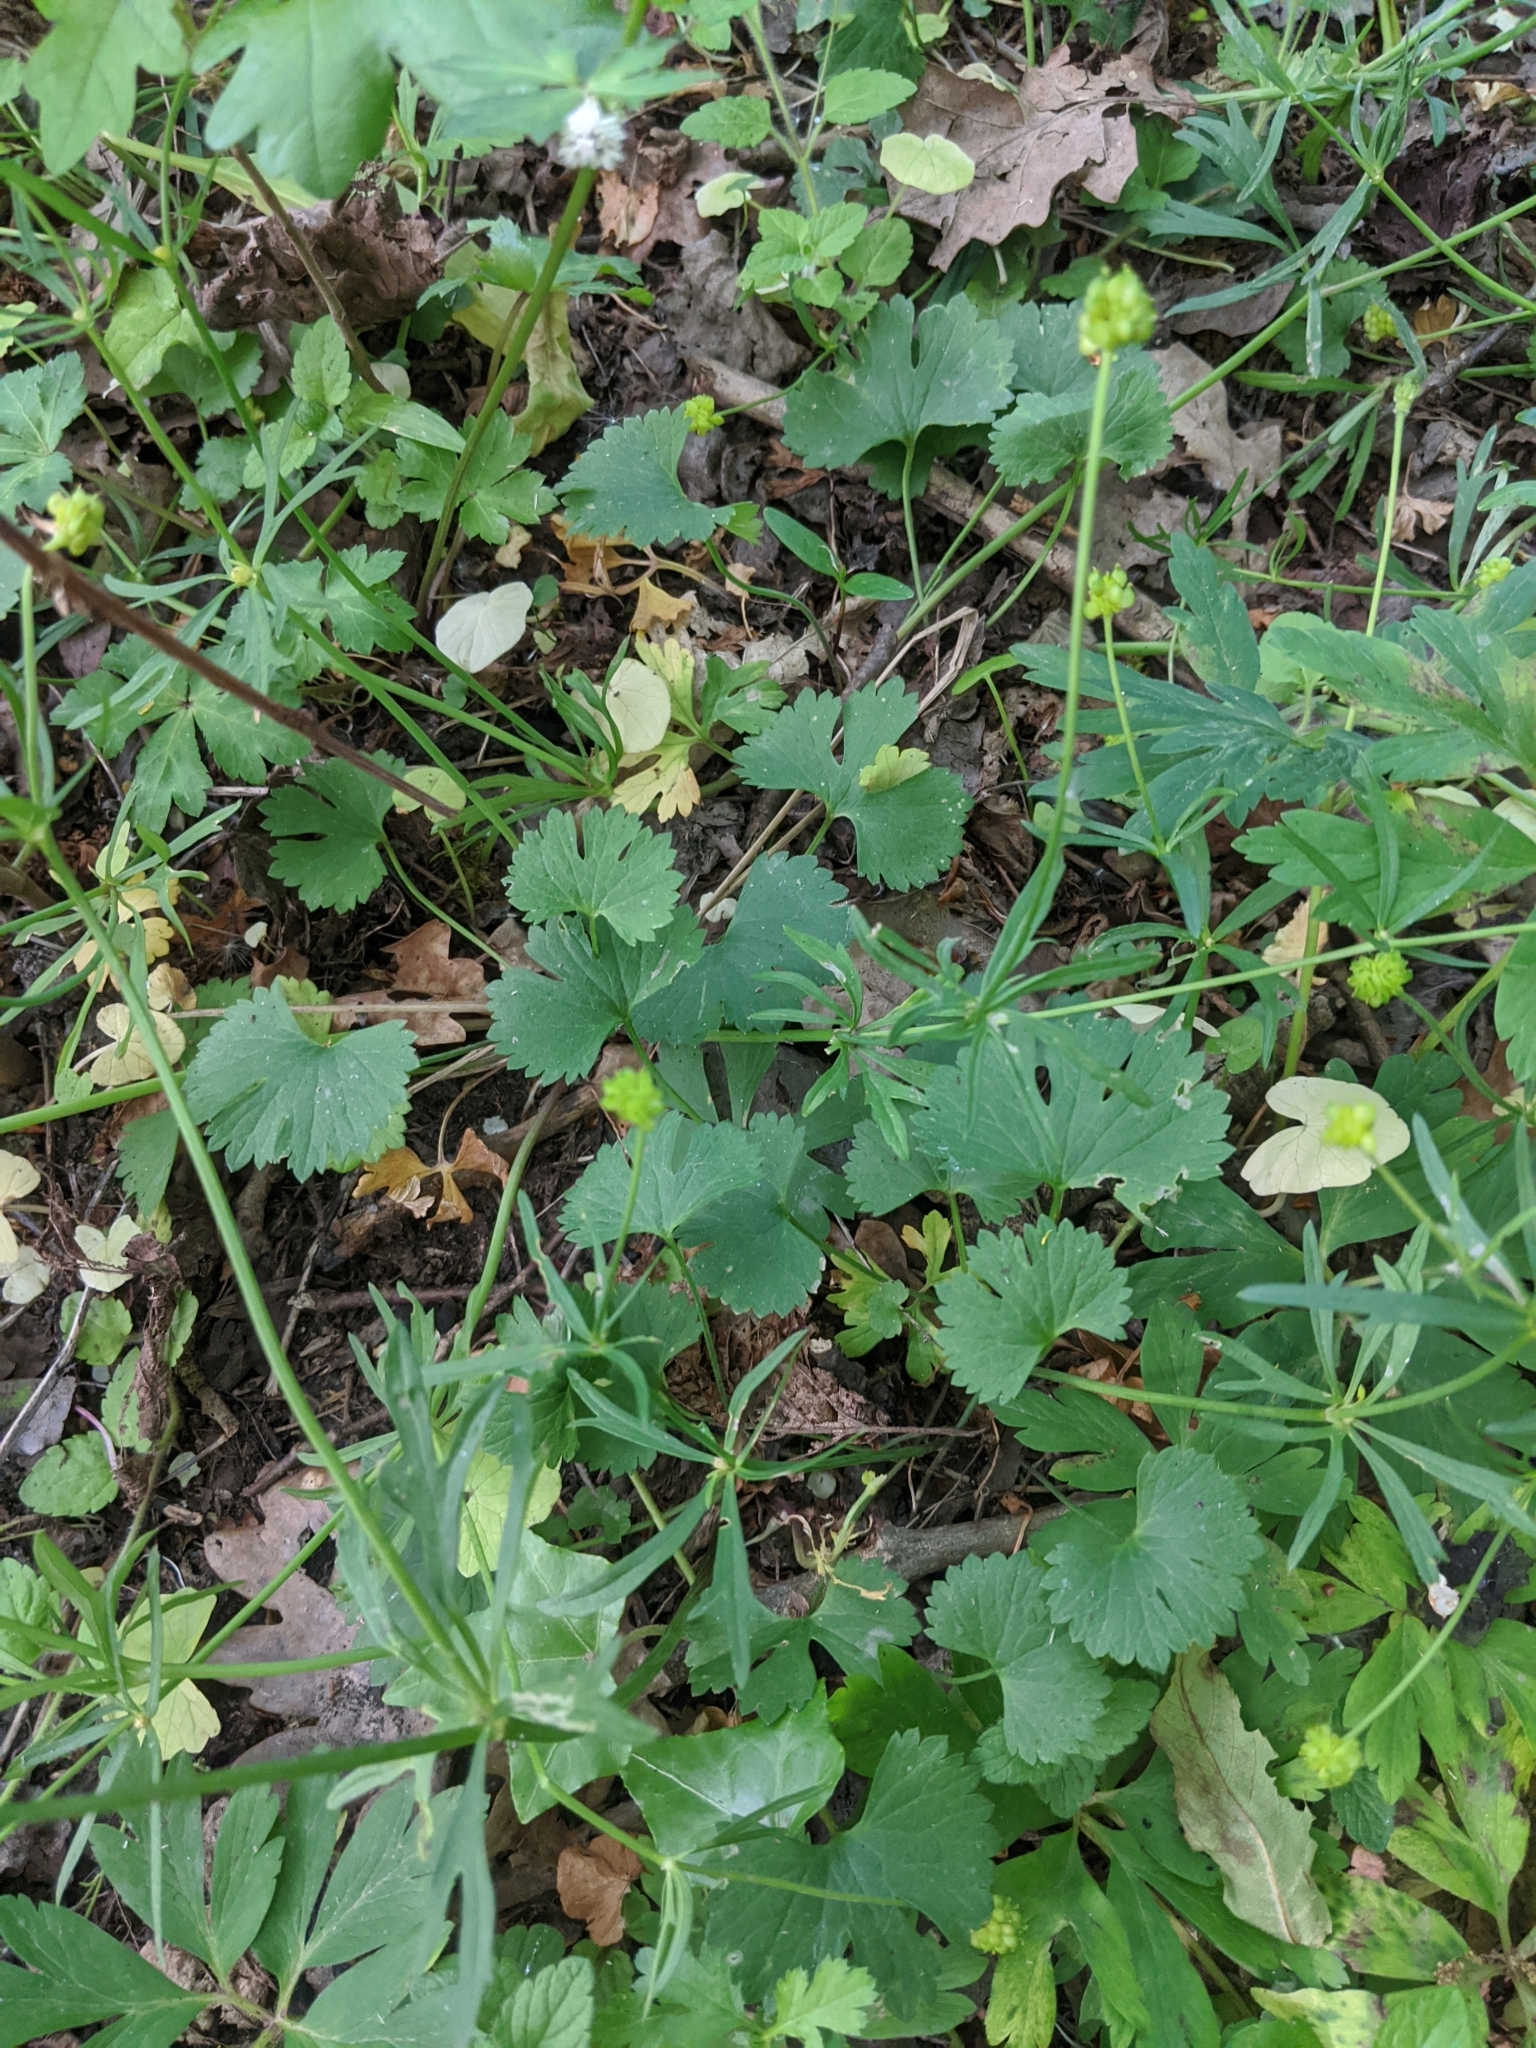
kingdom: Plantae
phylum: Tracheophyta
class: Magnoliopsida
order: Ranunculales
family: Ranunculaceae
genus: Ranunculus
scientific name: Ranunculus auricomus
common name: Goldilocks buttercup
